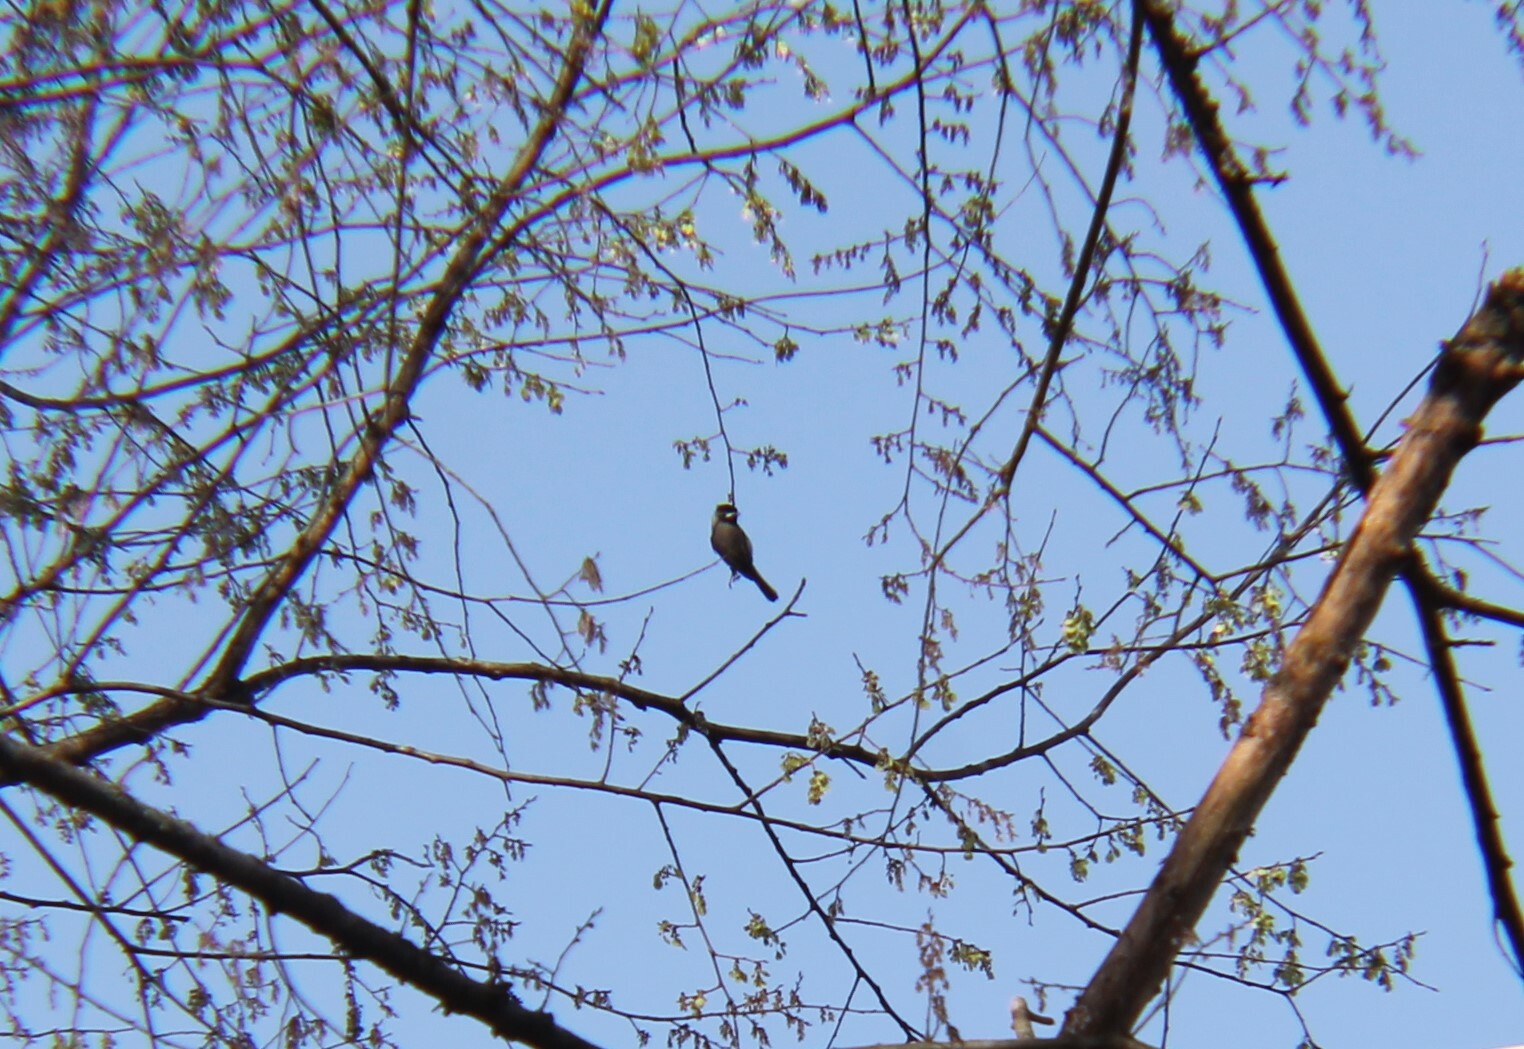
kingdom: Animalia
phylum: Chordata
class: Aves
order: Passeriformes
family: Paridae
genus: Poecile
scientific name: Poecile carolinensis
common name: Carolina chickadee
